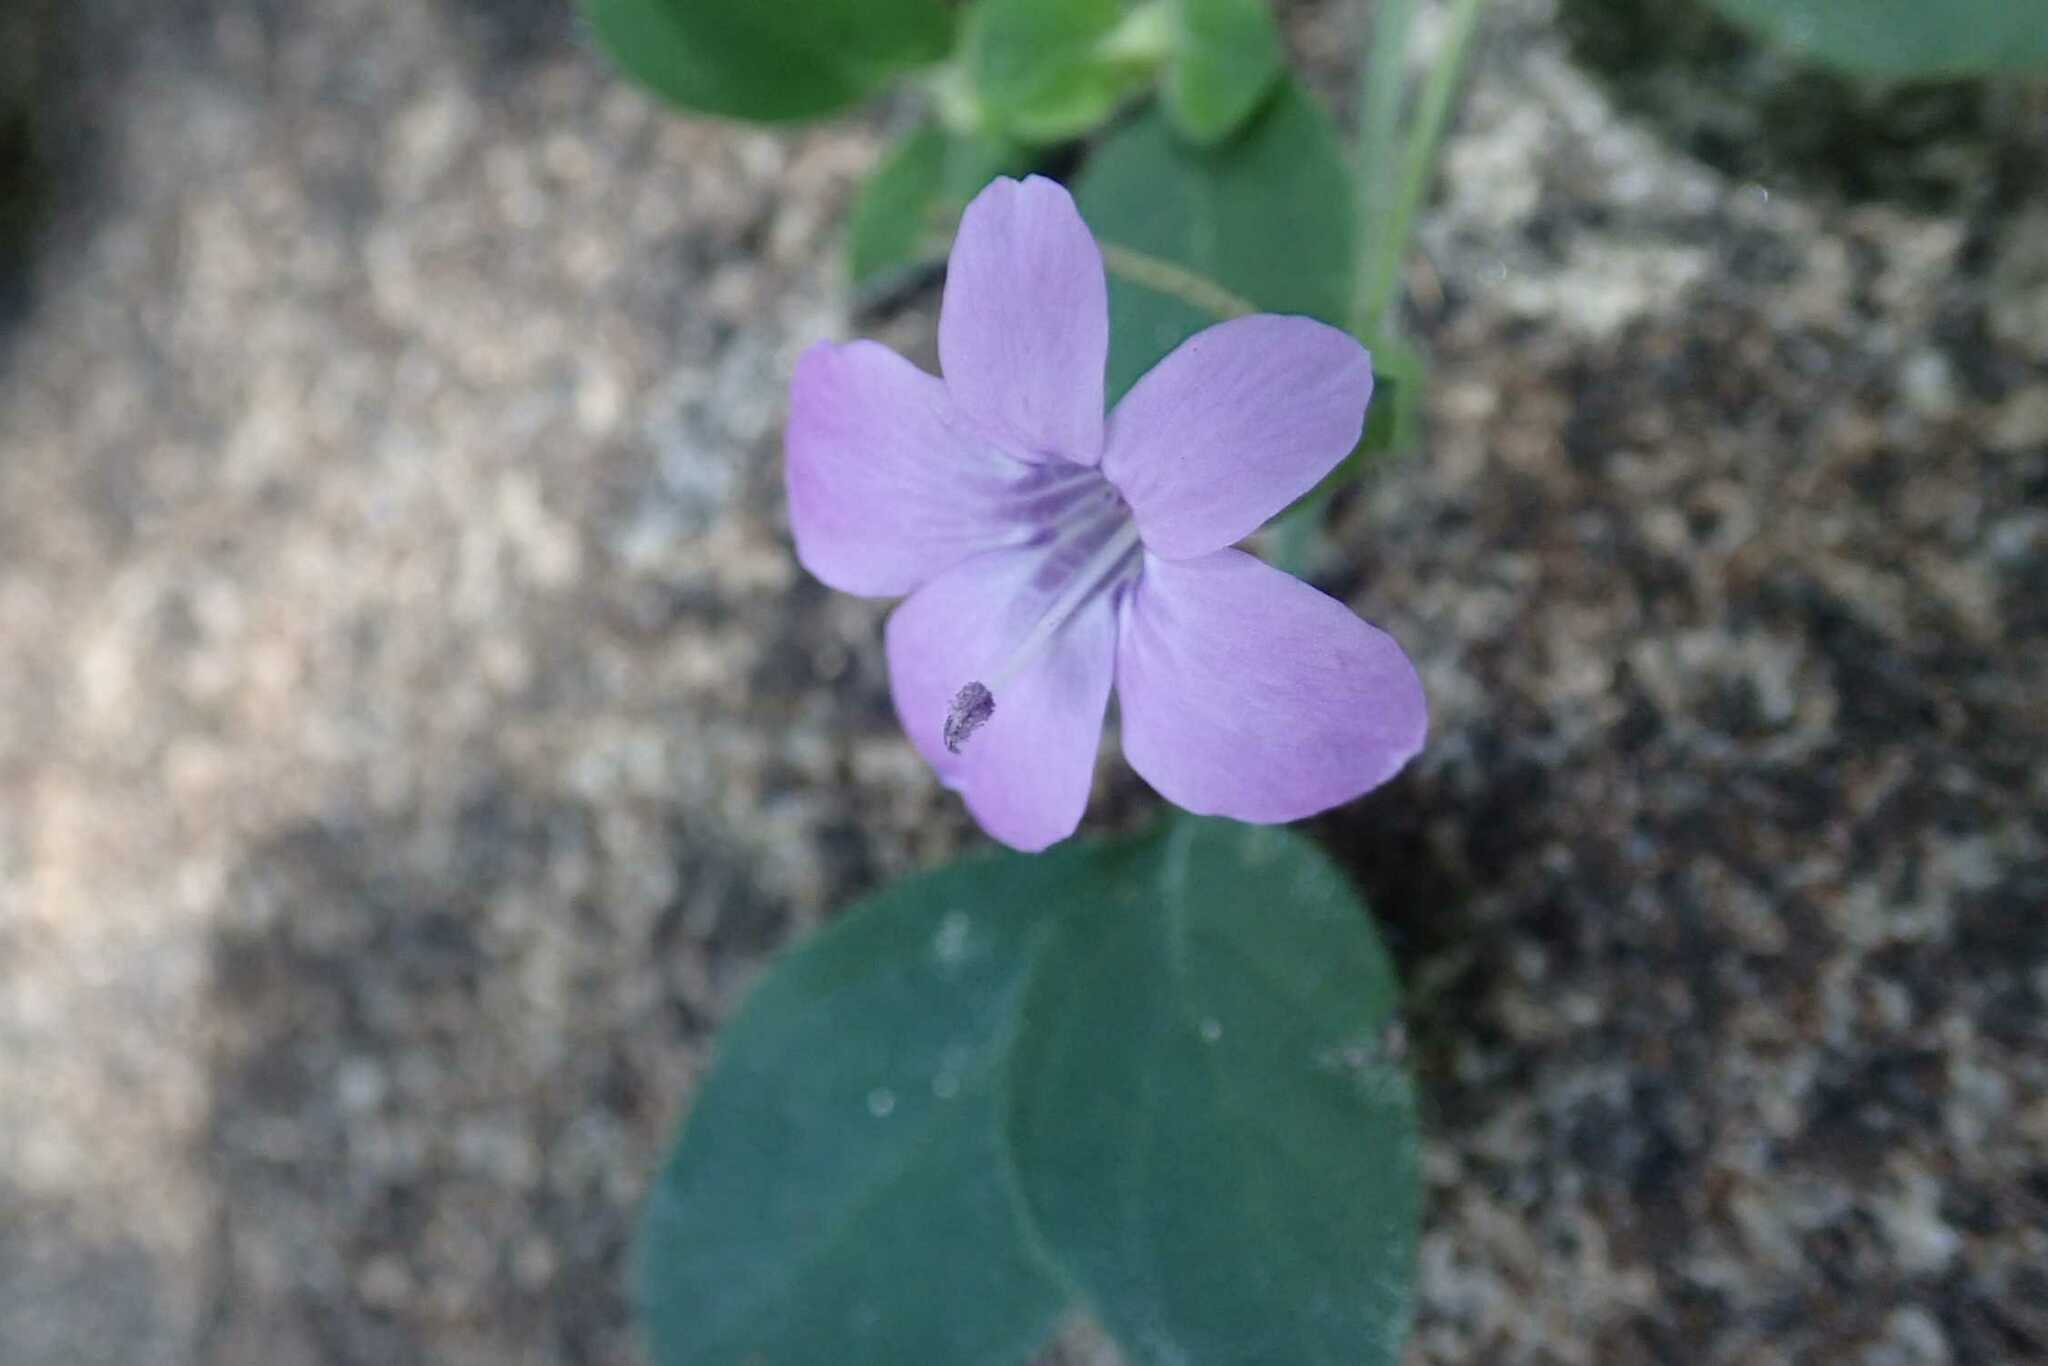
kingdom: Plantae
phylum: Tracheophyta
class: Magnoliopsida
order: Lamiales
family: Acanthaceae
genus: Barleria
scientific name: Barleria obtusa
